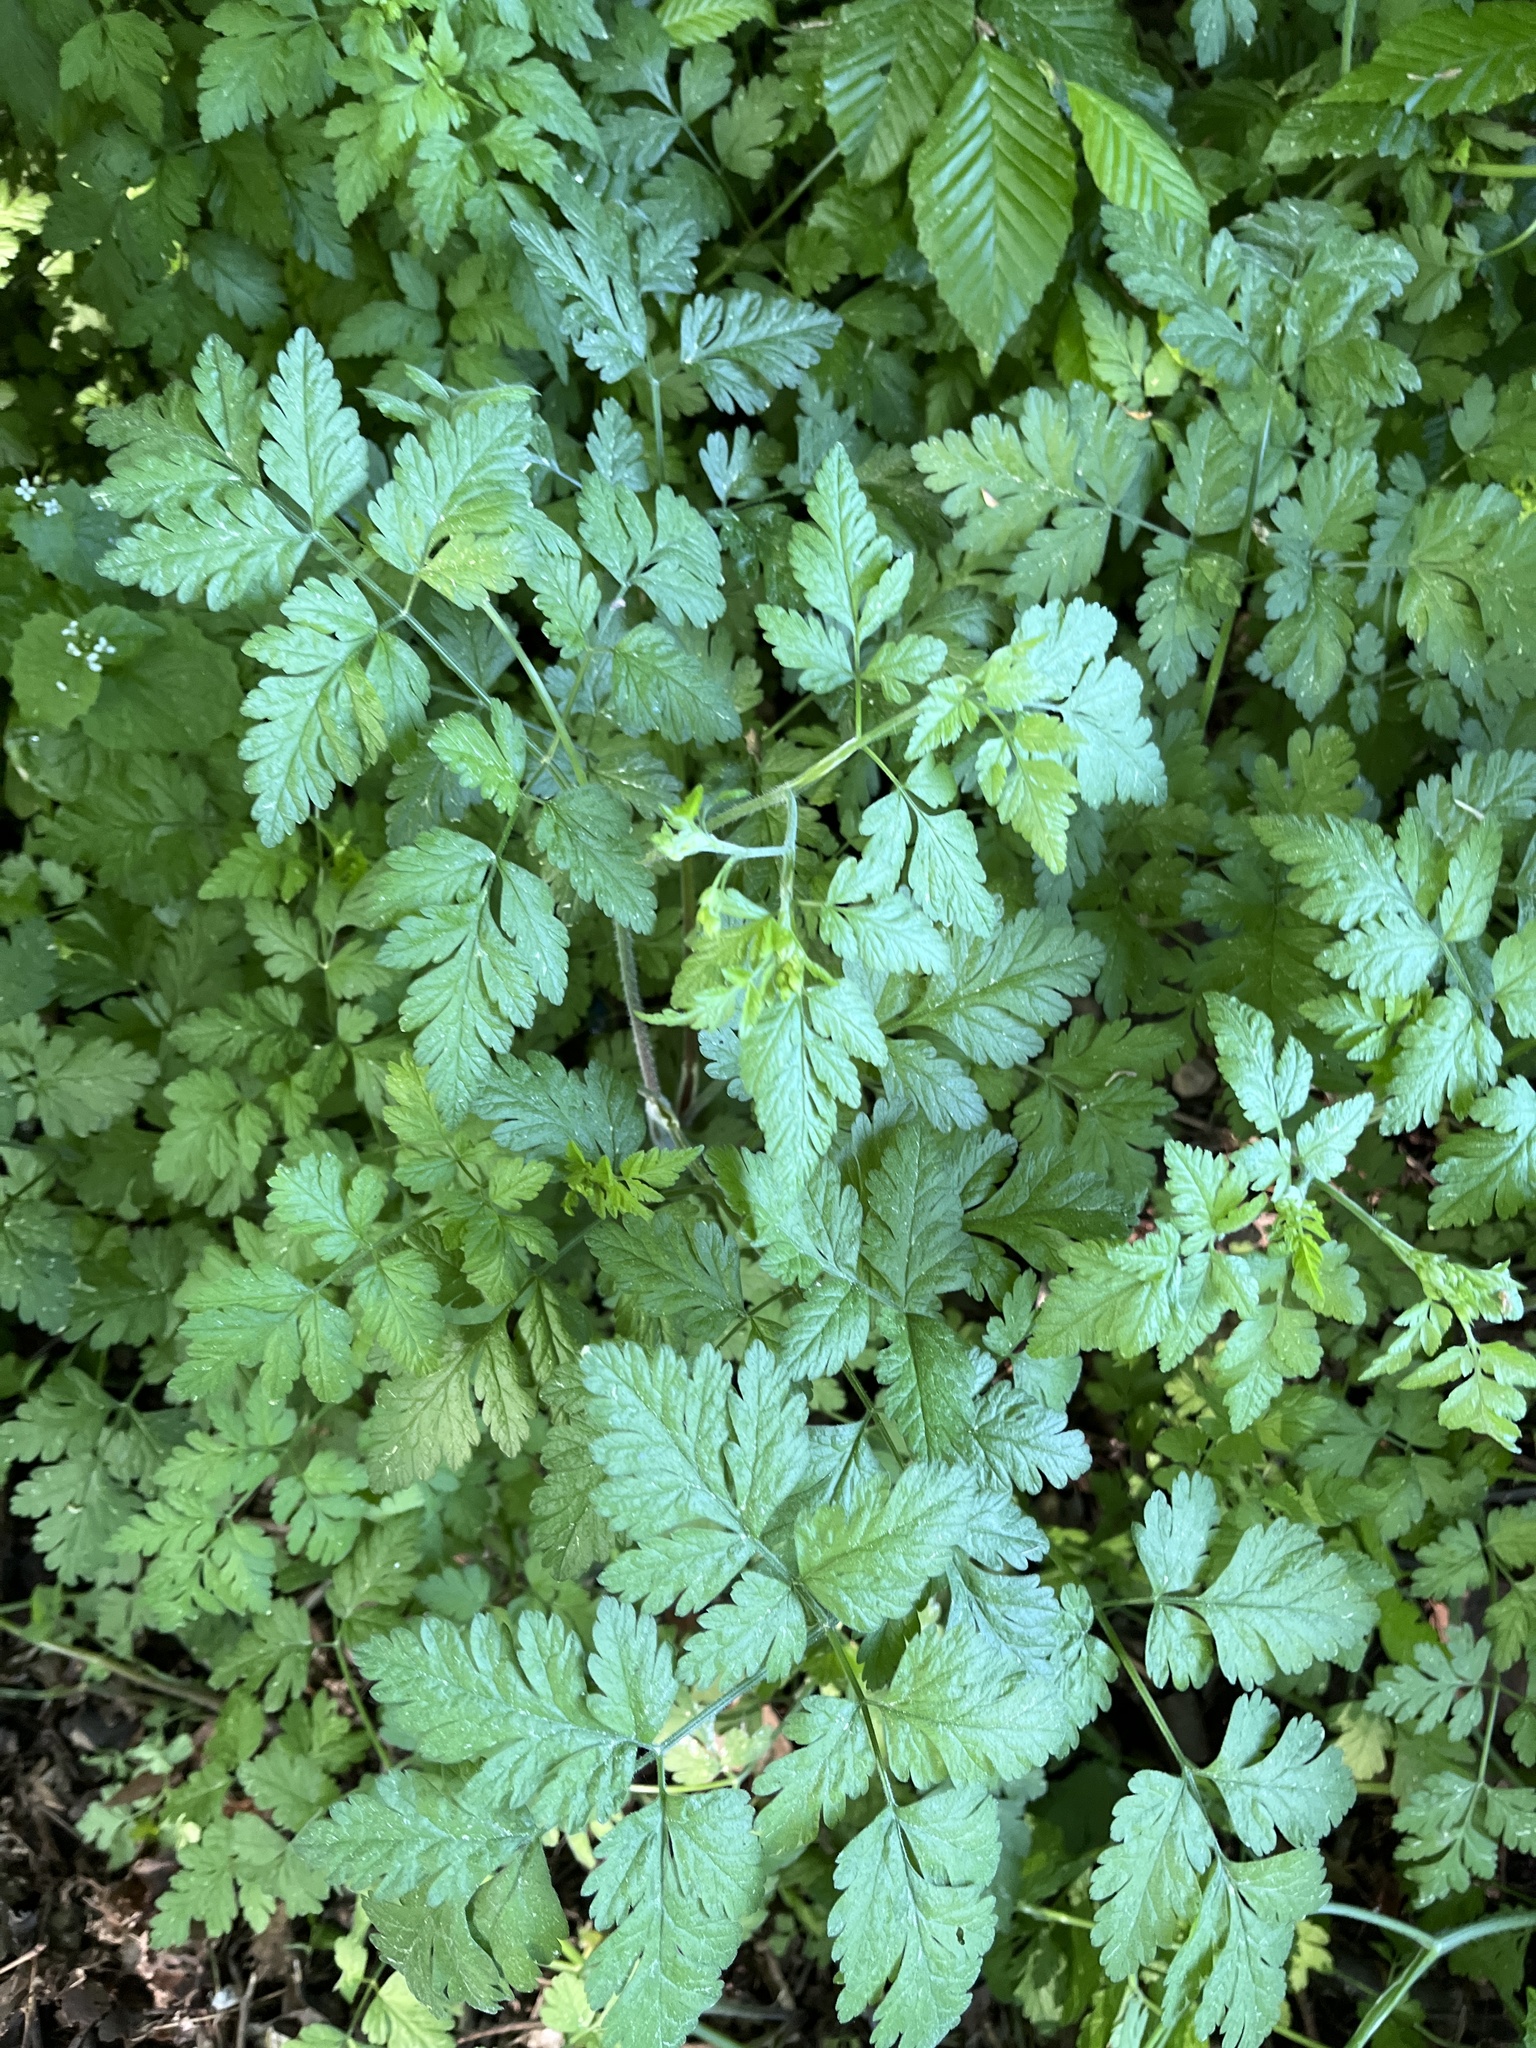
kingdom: Plantae
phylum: Tracheophyta
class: Magnoliopsida
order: Apiales
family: Apiaceae
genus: Chaerophyllum
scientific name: Chaerophyllum temulum
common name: Rough chervil
